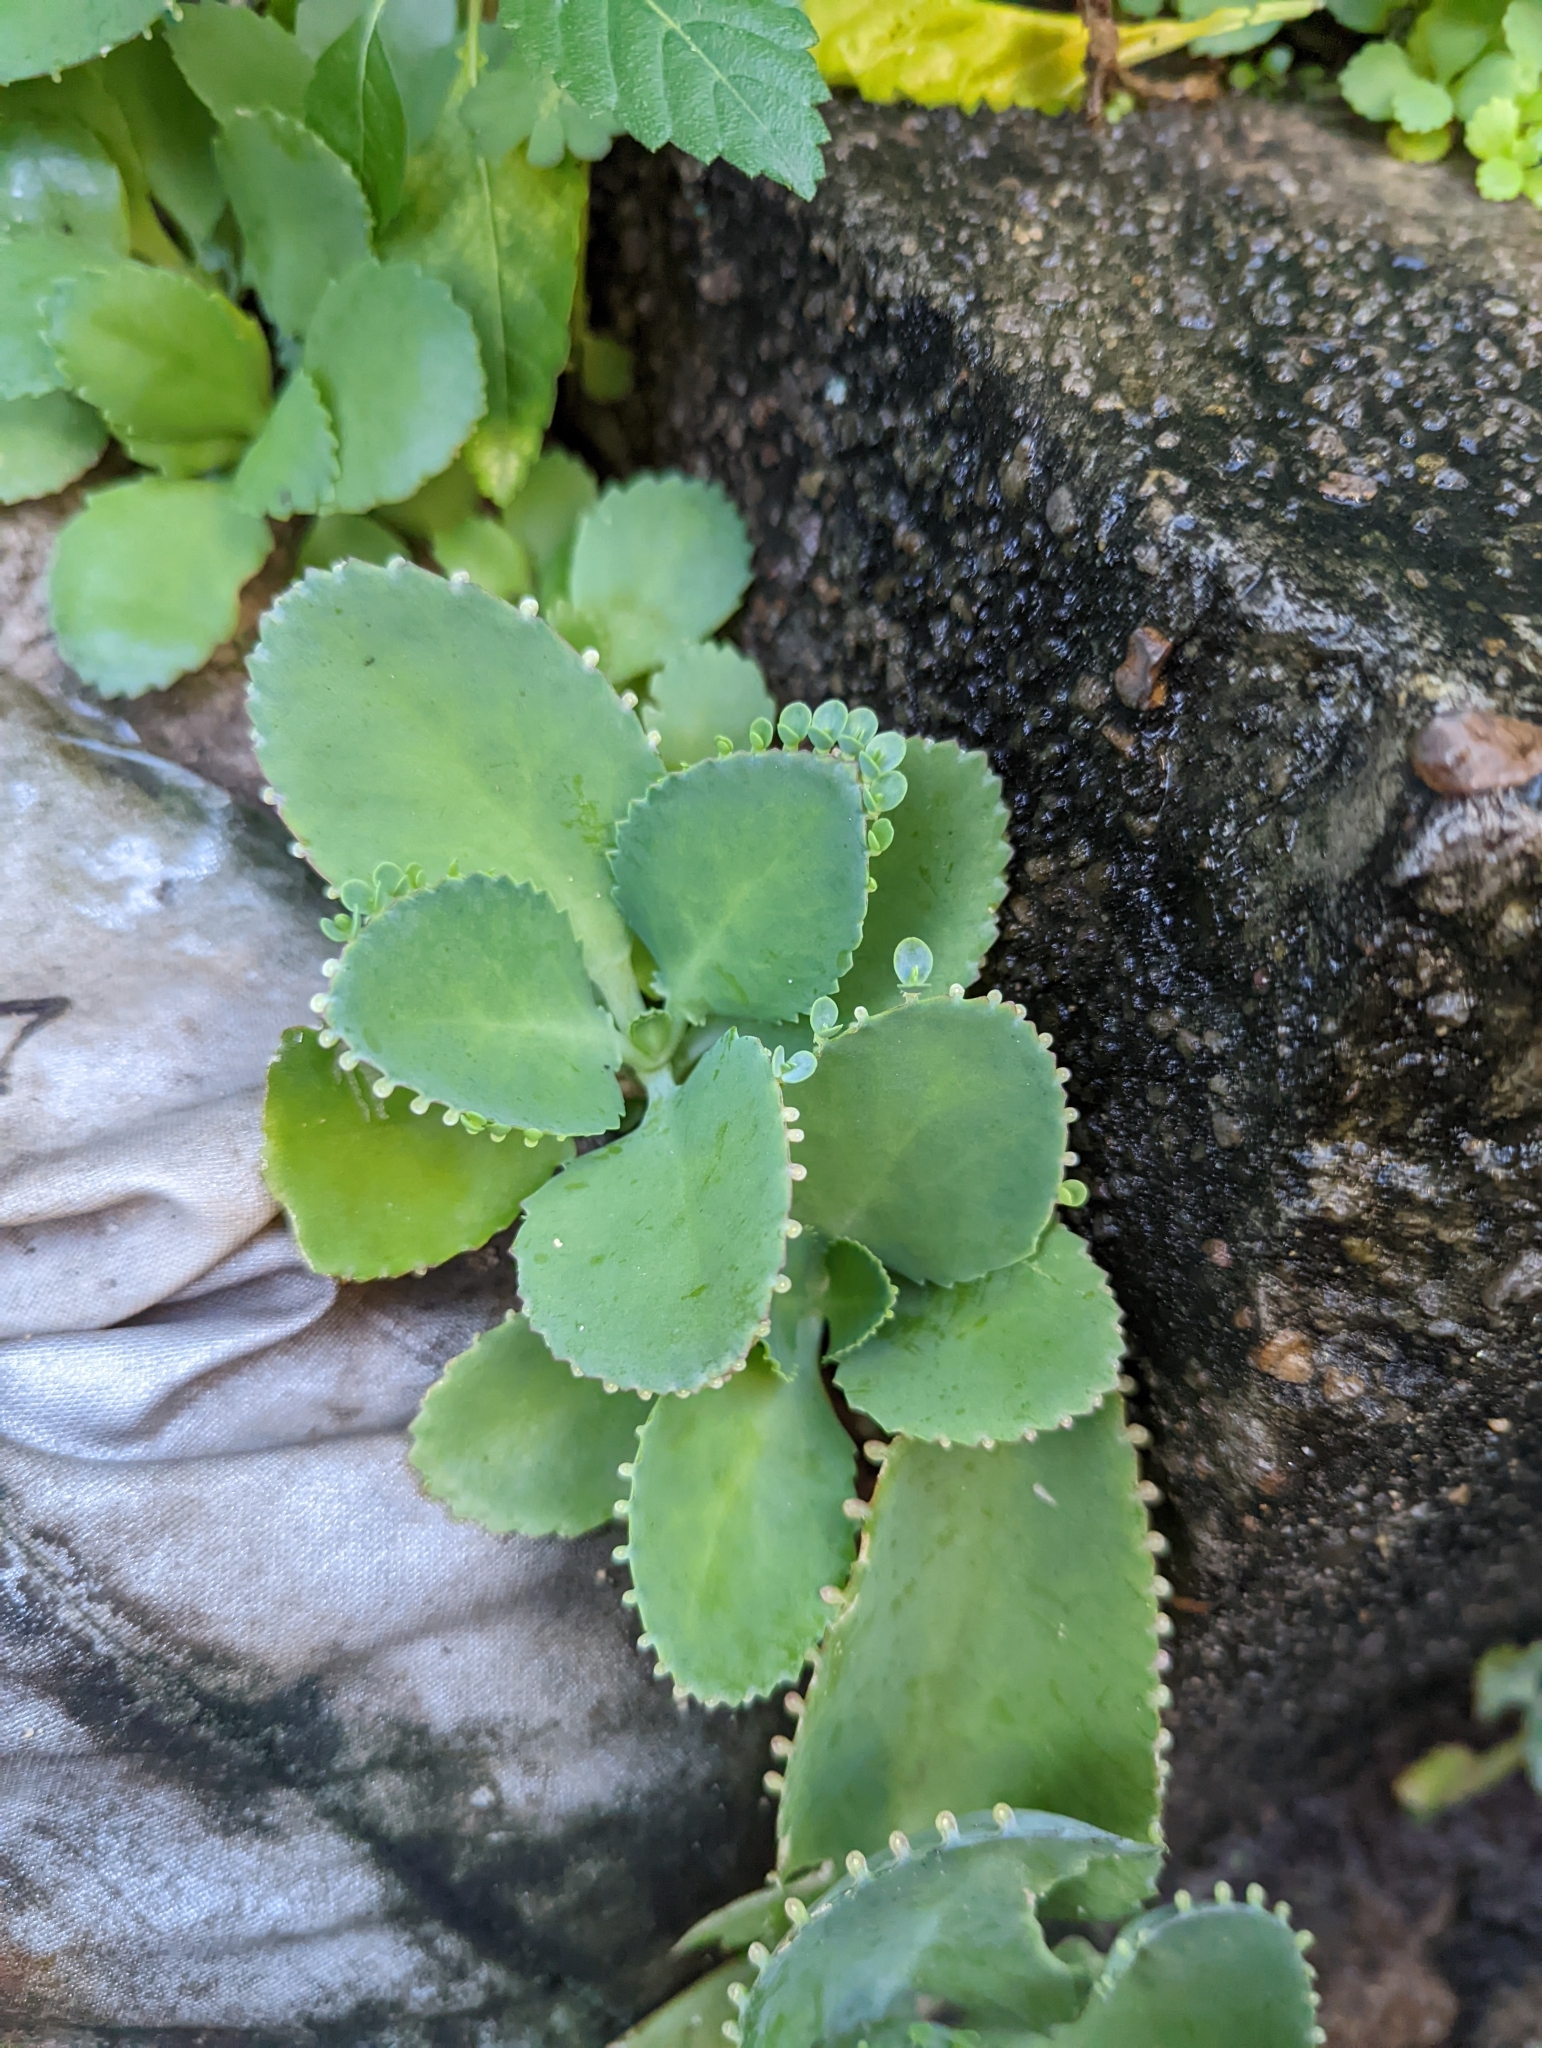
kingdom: Plantae
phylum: Tracheophyta
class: Magnoliopsida
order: Saxifragales
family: Crassulaceae
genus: Kalanchoe
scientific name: Kalanchoe laetivirens
